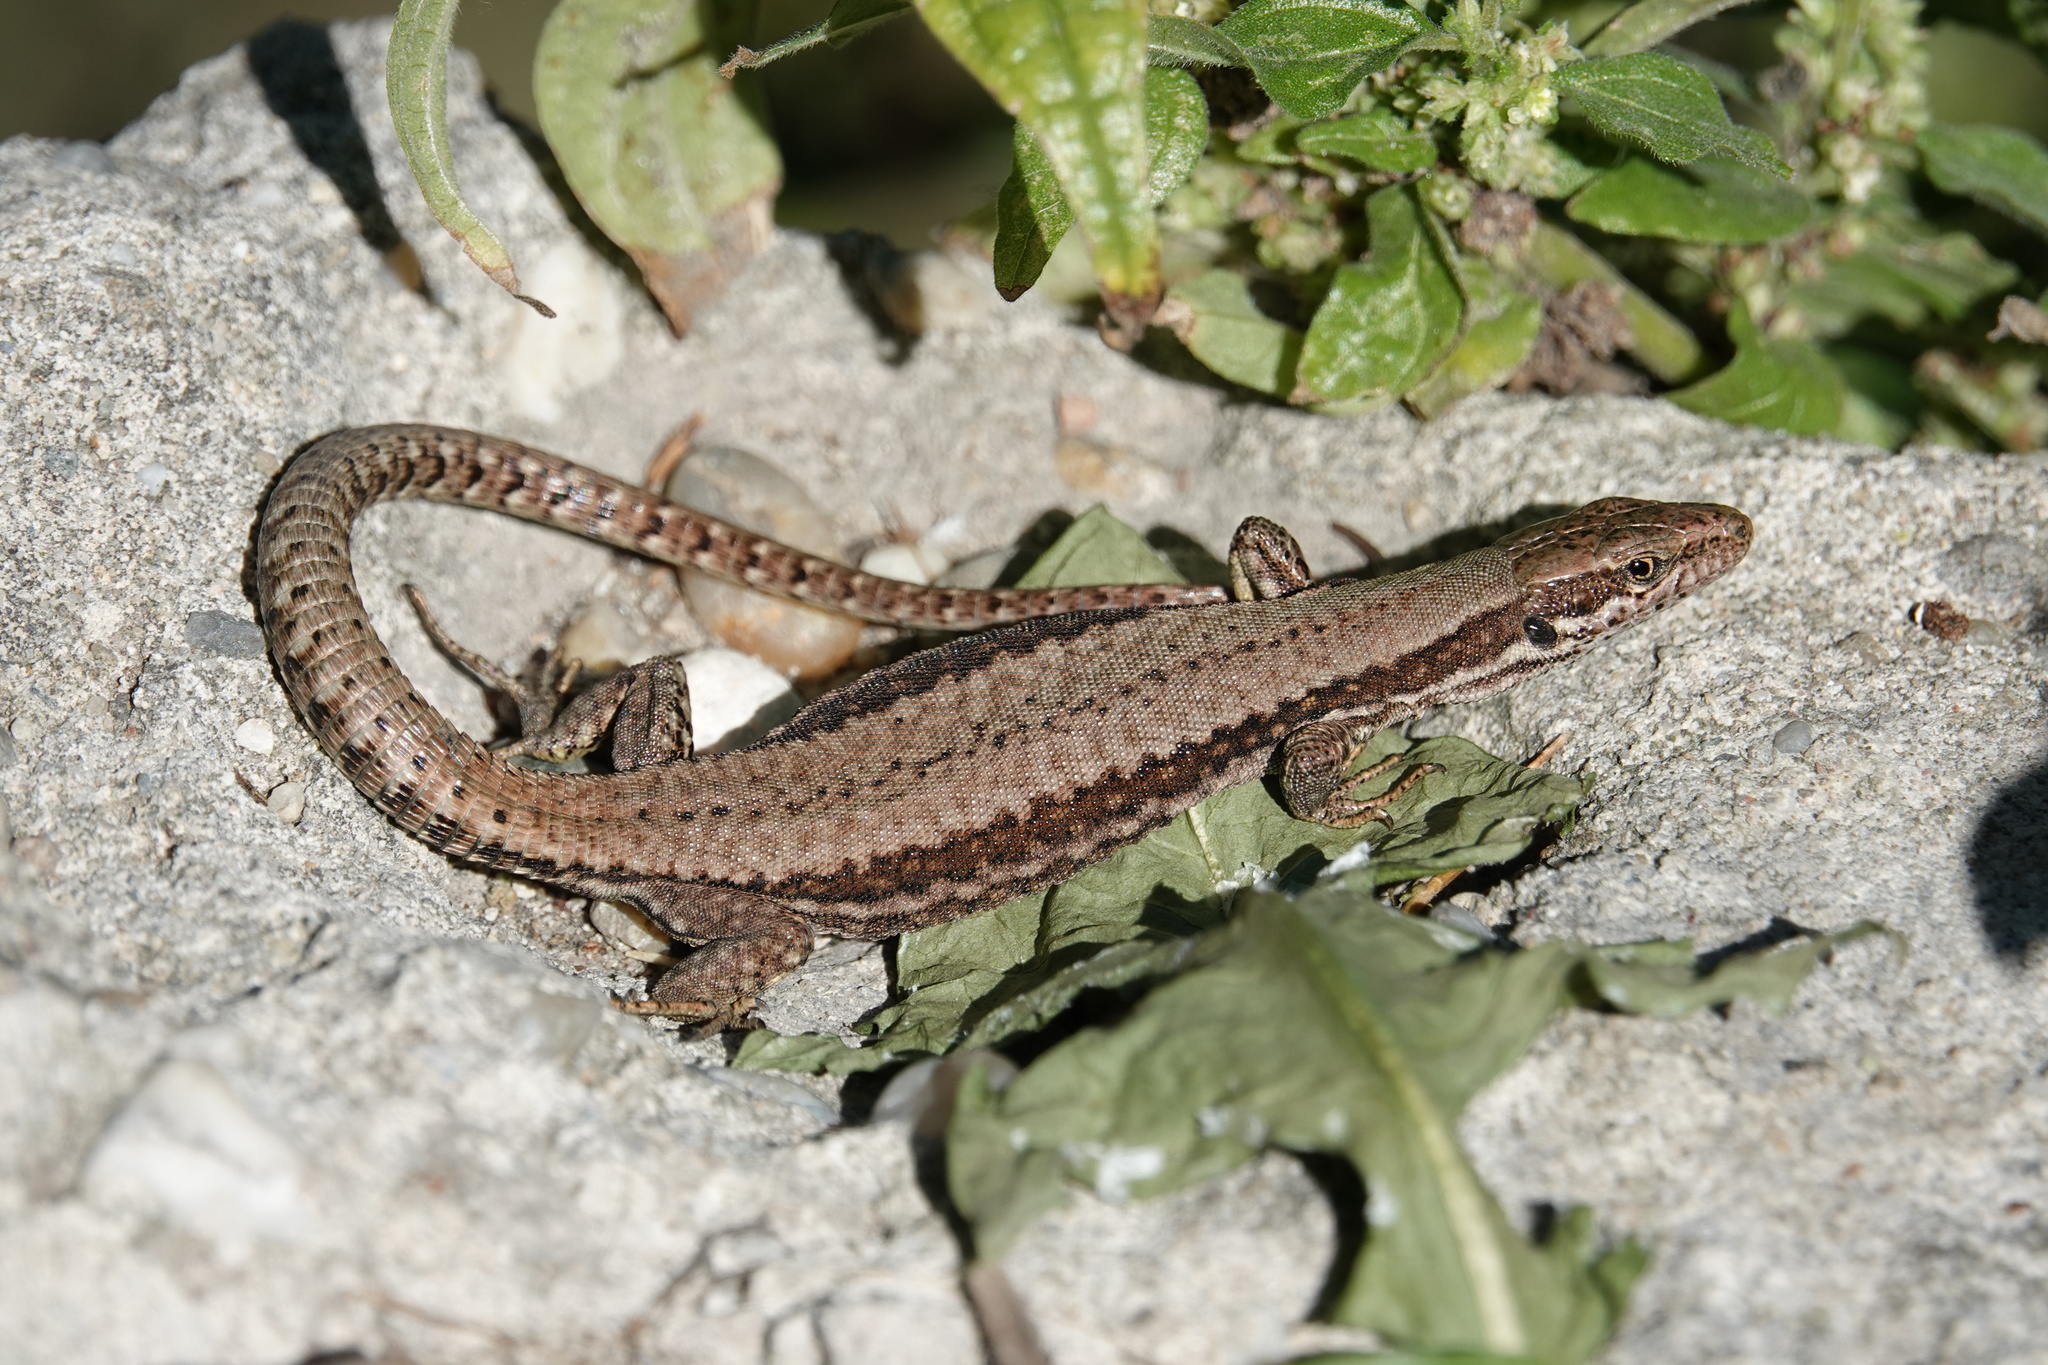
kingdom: Animalia
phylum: Chordata
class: Squamata
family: Lacertidae
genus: Podarcis
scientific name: Podarcis muralis
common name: Common wall lizard
